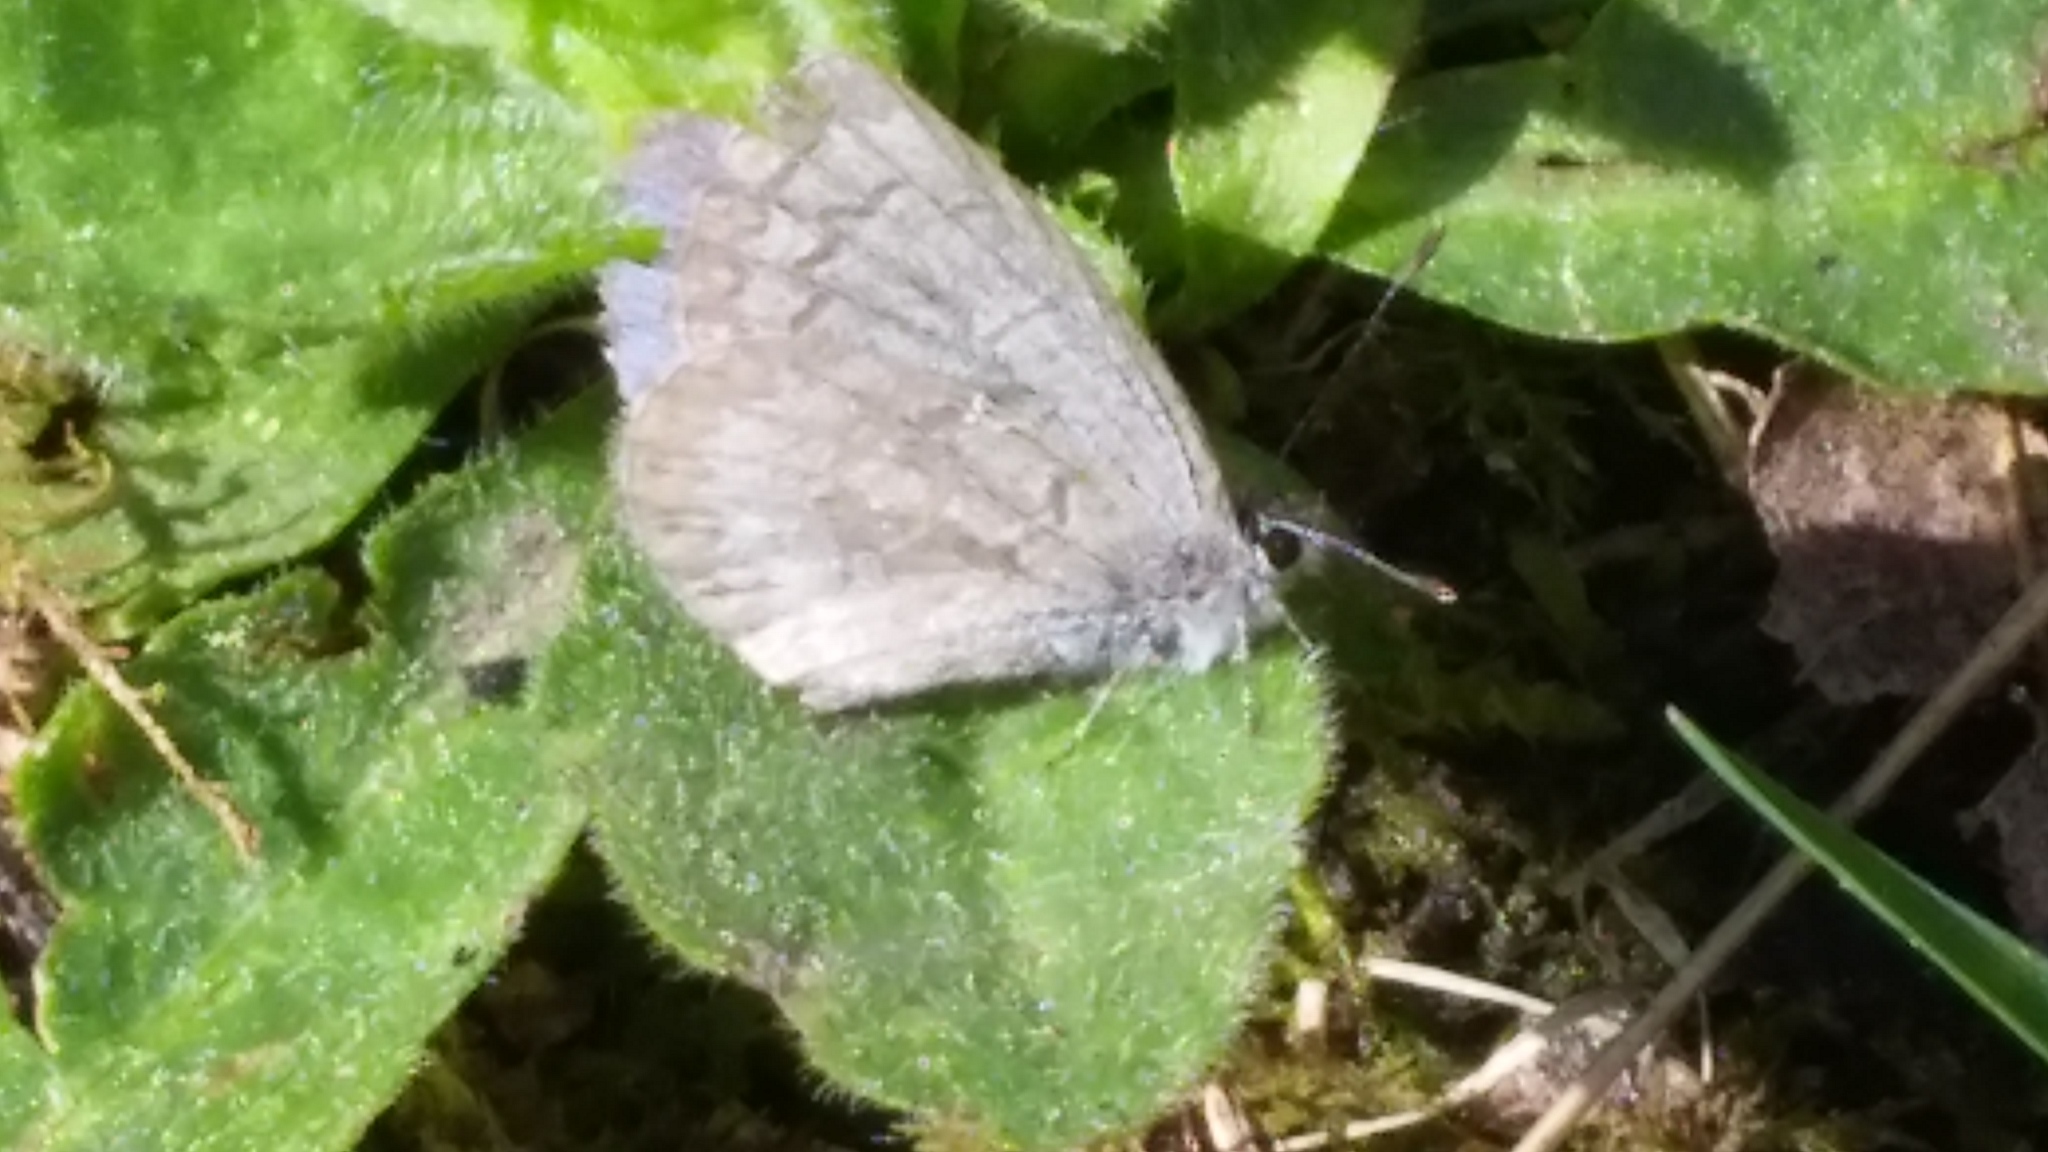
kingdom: Animalia
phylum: Arthropoda
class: Insecta
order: Lepidoptera
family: Lycaenidae
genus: Celastrina
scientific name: Celastrina lucia
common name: Lucia azure
